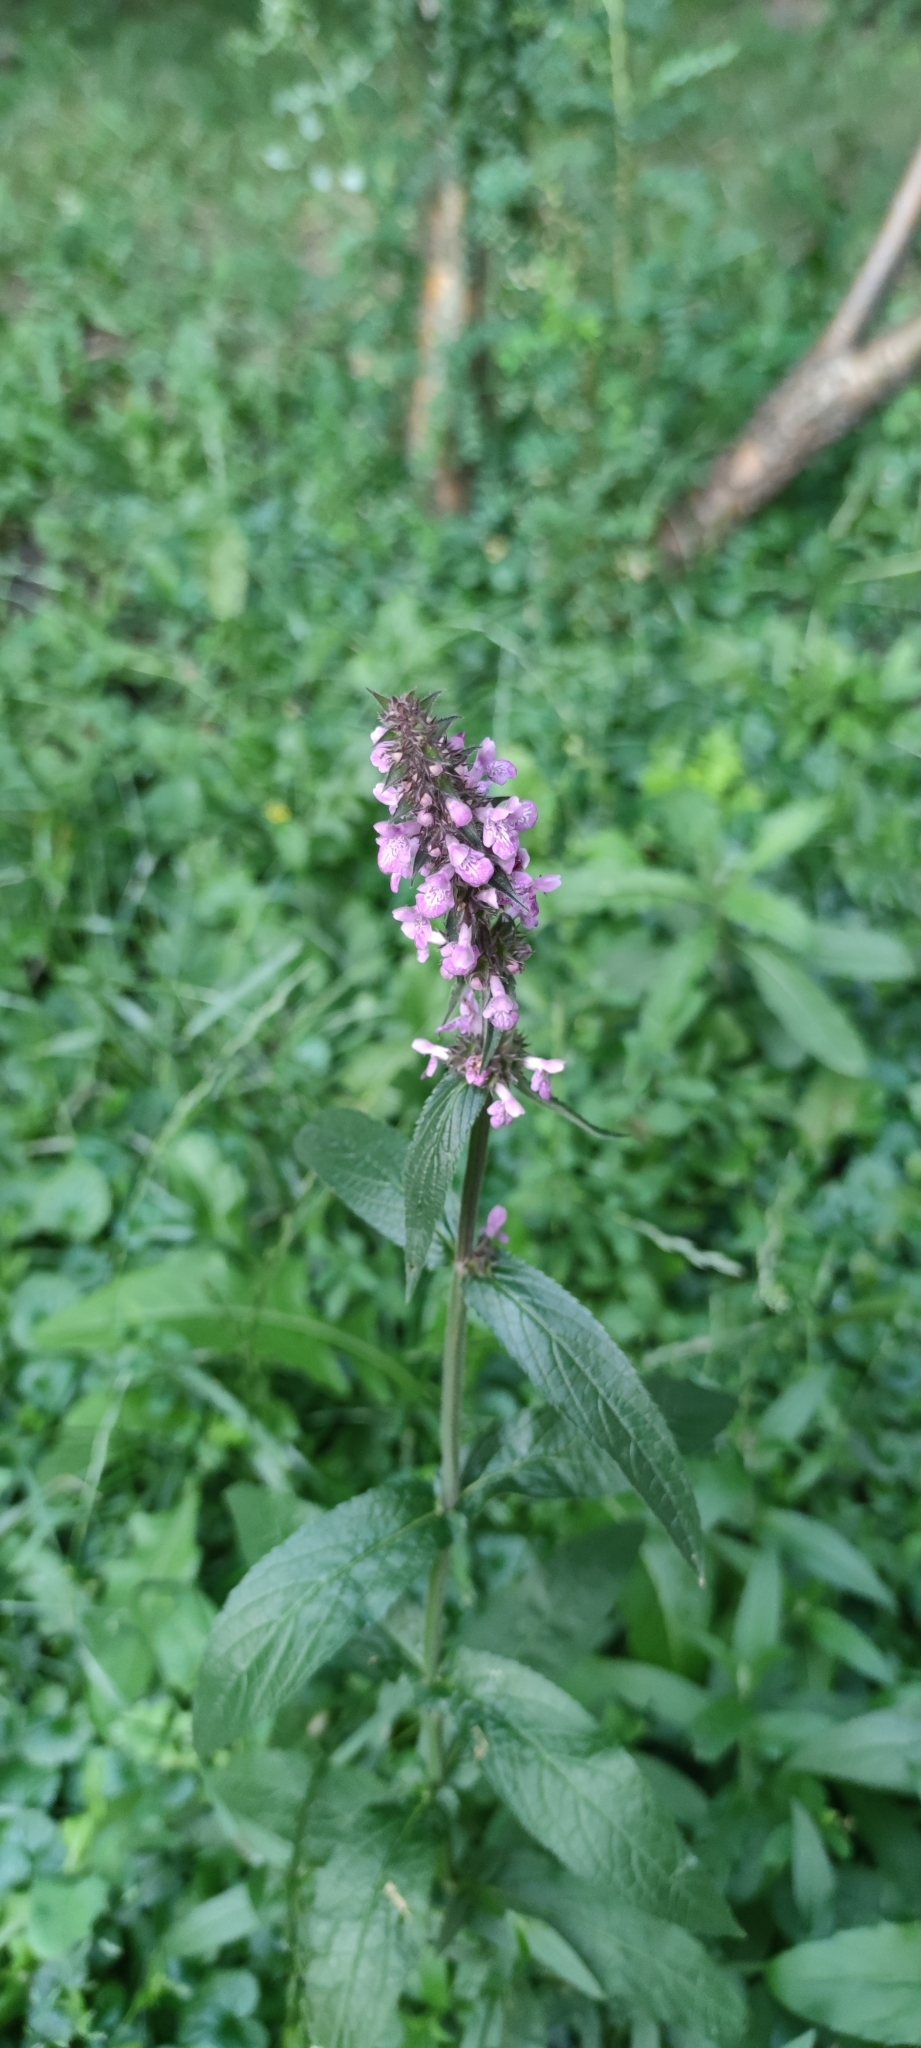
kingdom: Plantae
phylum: Tracheophyta
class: Magnoliopsida
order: Lamiales
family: Lamiaceae
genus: Stachys
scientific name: Stachys palustris
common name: Marsh woundwort
